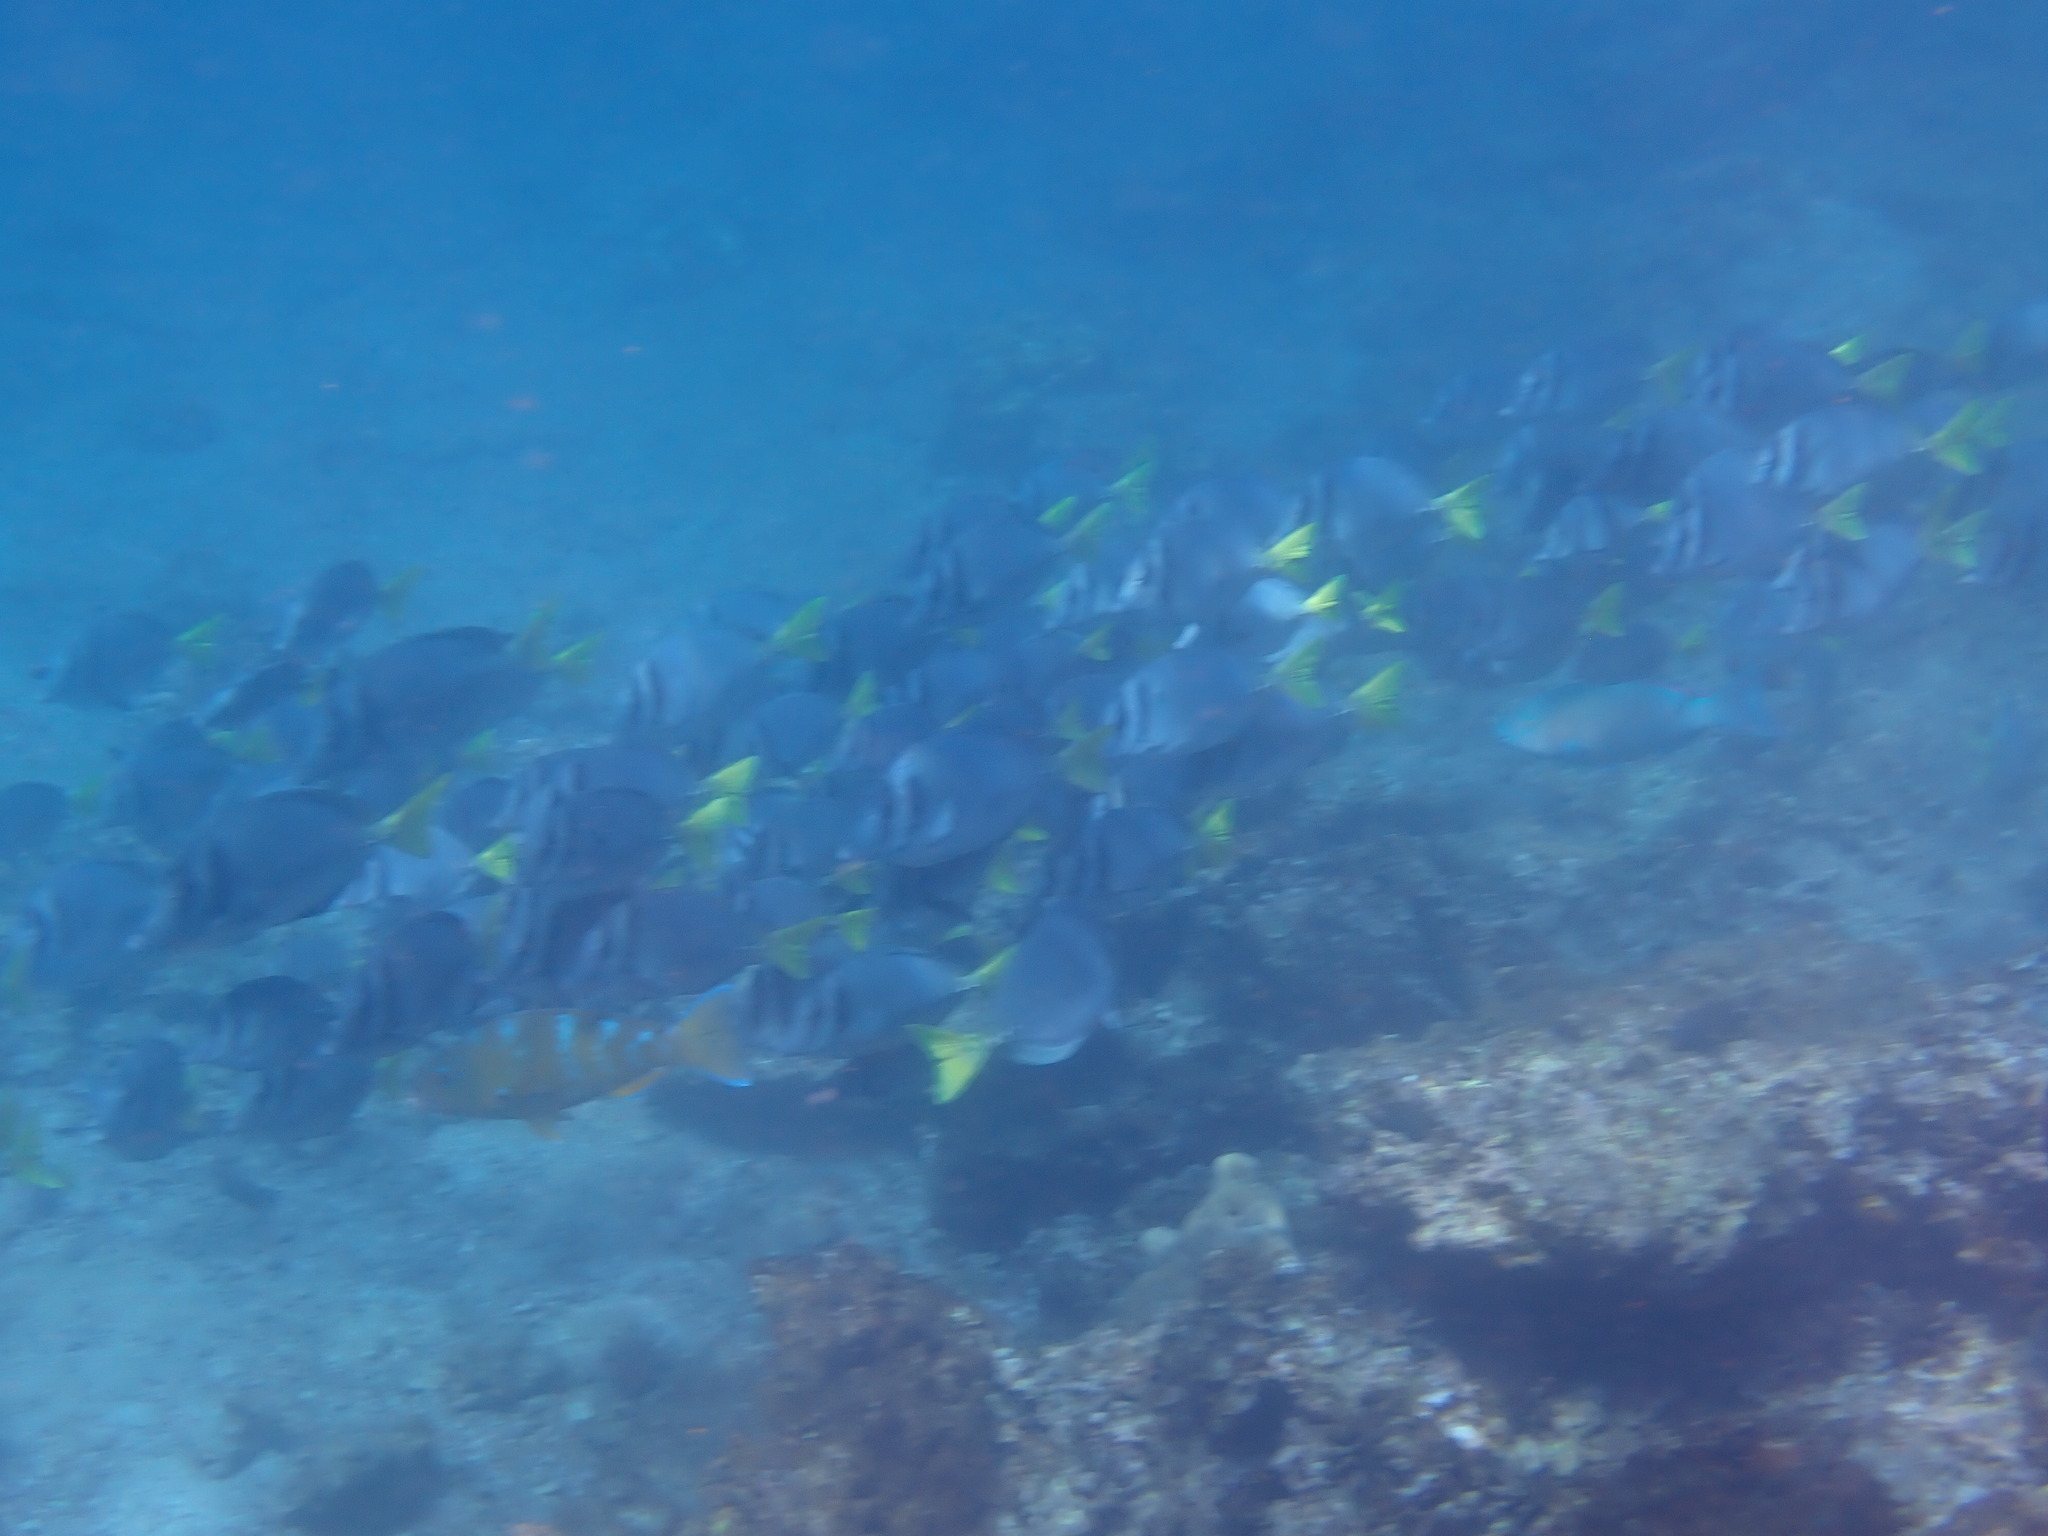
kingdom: Animalia
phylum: Chordata
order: Perciformes
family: Acanthuridae
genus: Prionurus
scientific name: Prionurus laticlavius
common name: Razor surgeonfish
